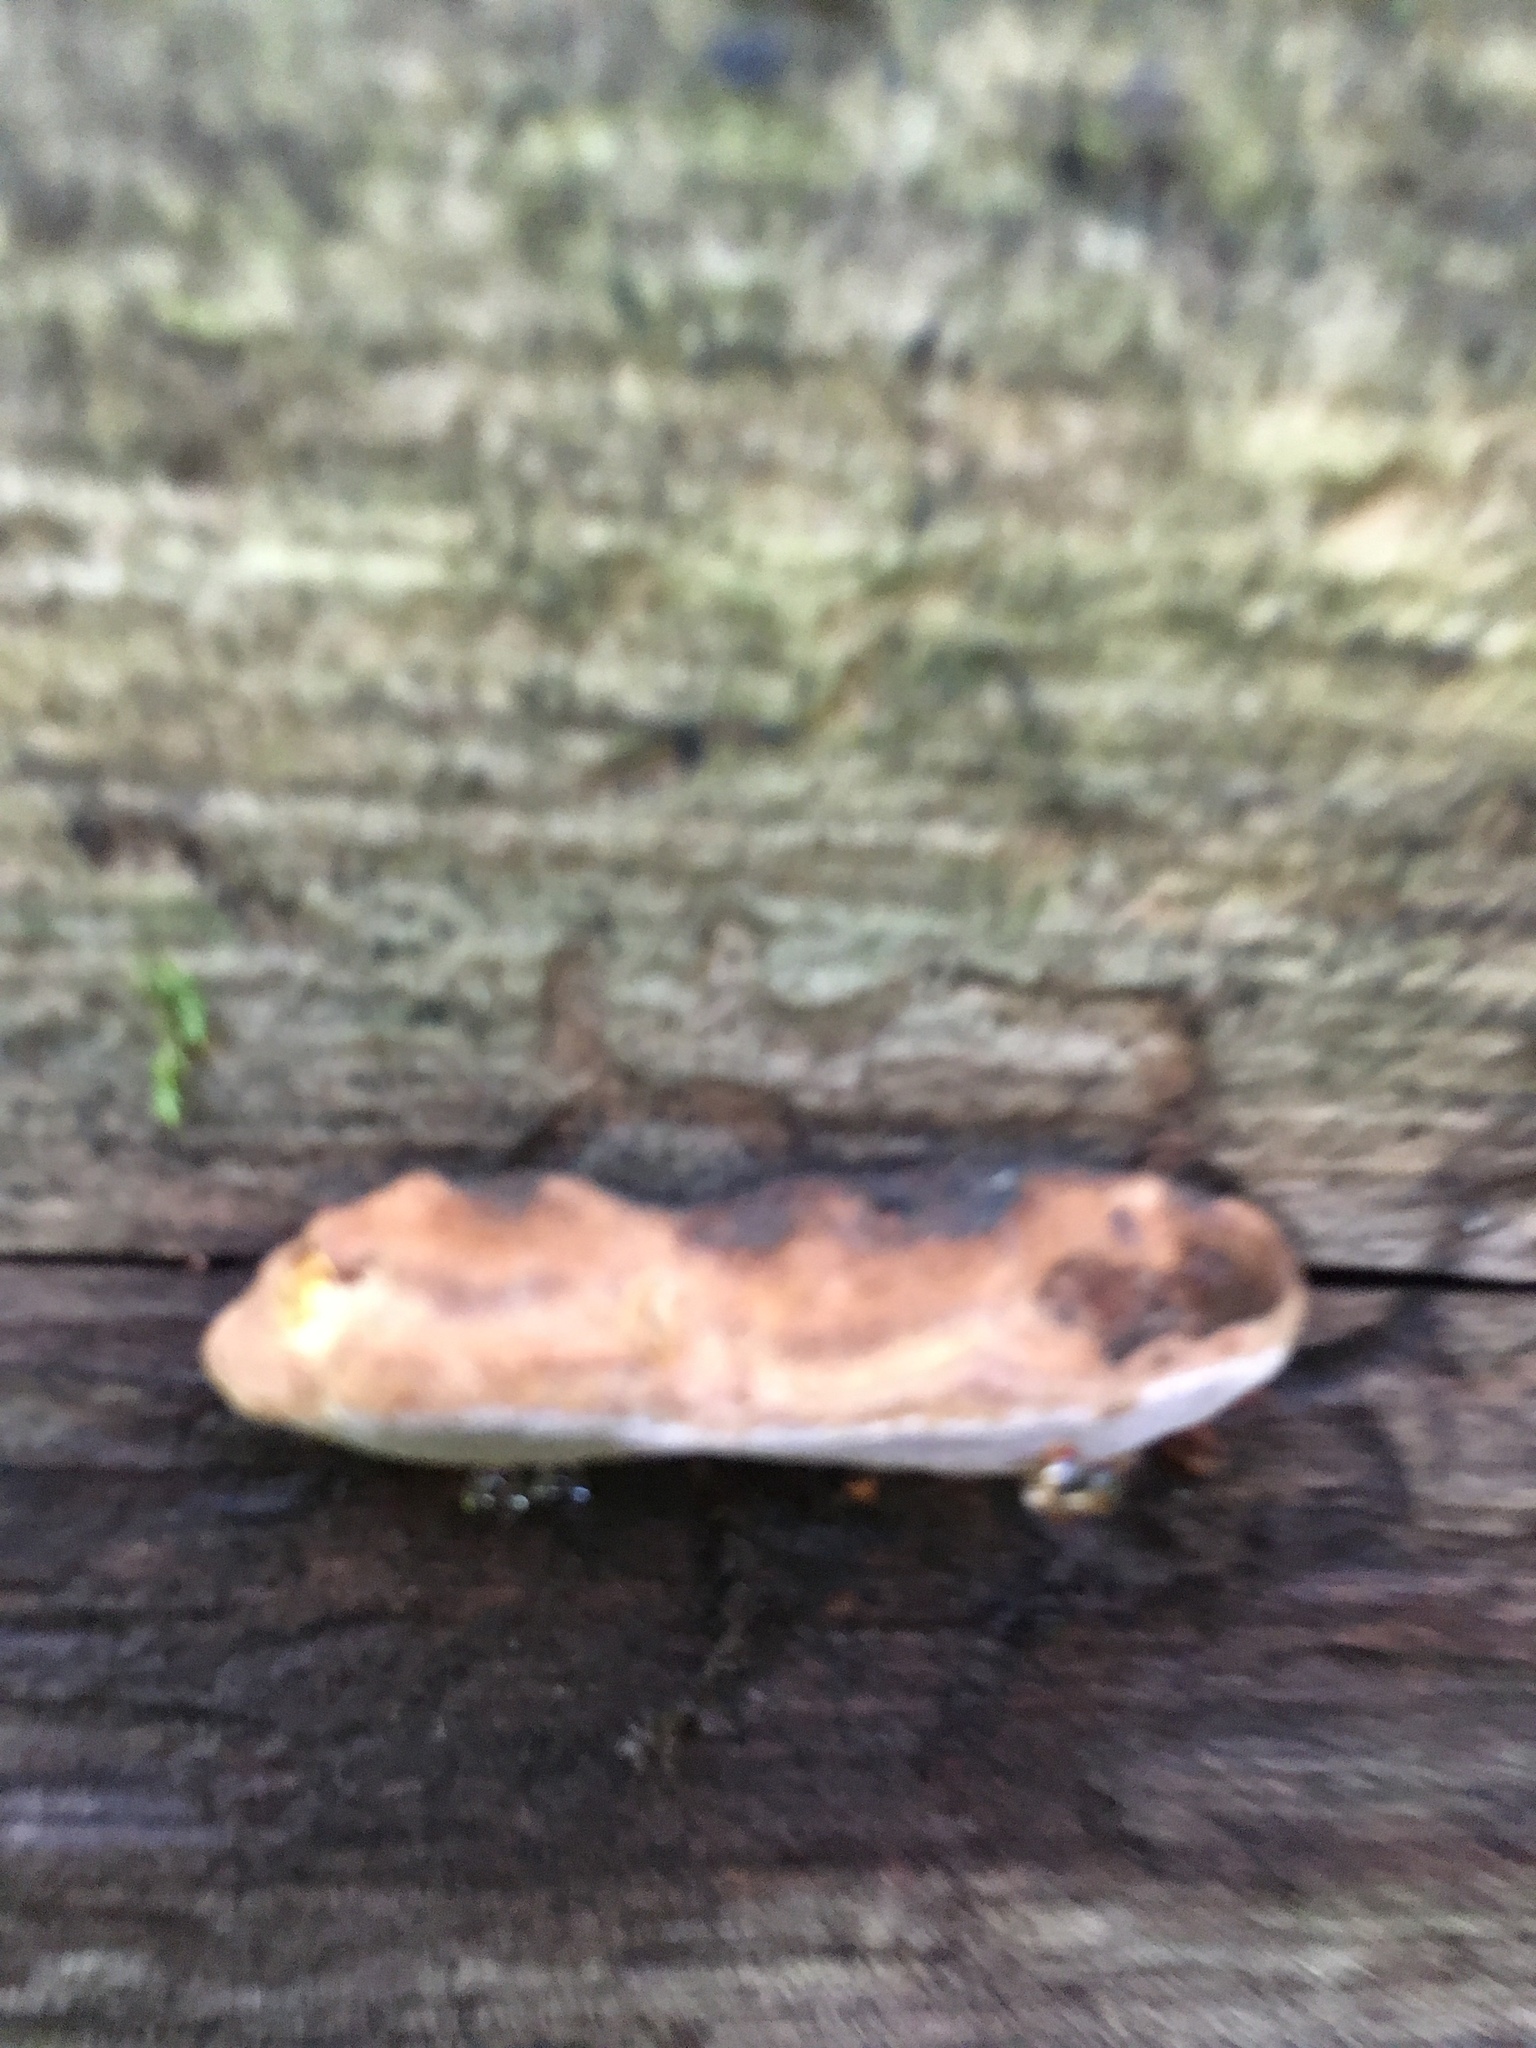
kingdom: Fungi
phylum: Basidiomycota
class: Agaricomycetes
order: Polyporales
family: Fomitopsidaceae
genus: Rhodofomes
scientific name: Rhodofomes roseus
